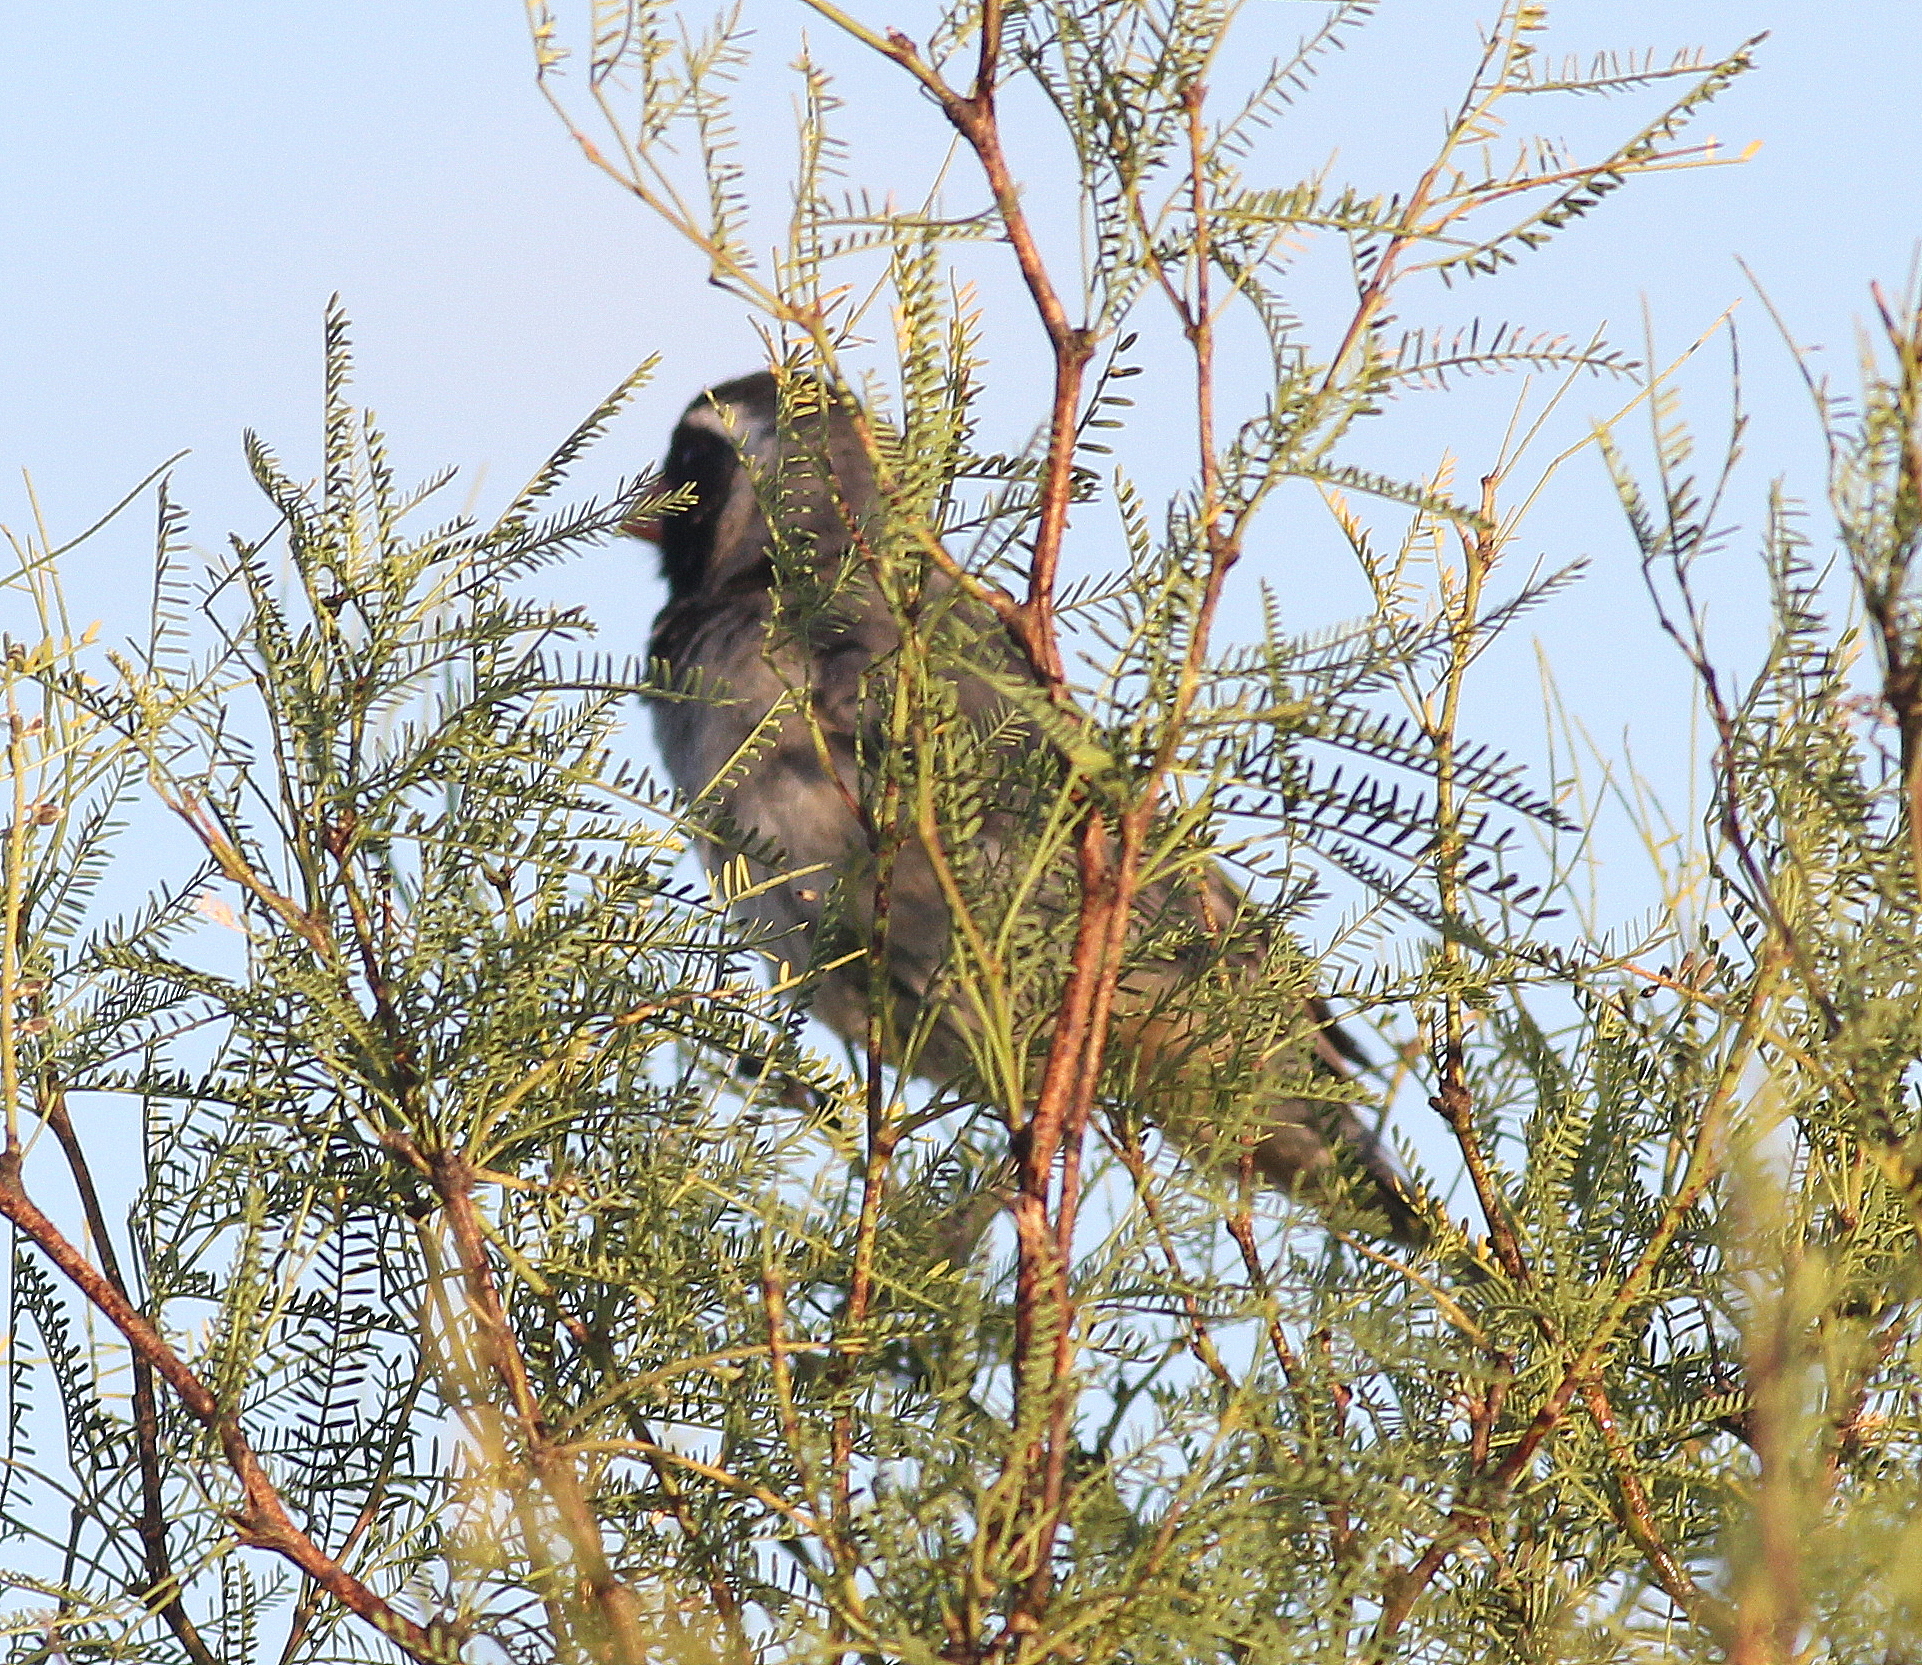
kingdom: Animalia
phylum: Chordata
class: Aves
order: Passeriformes
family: Thraupidae
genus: Saltator
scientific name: Saltator aurantiirostris
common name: Golden-billed saltator
